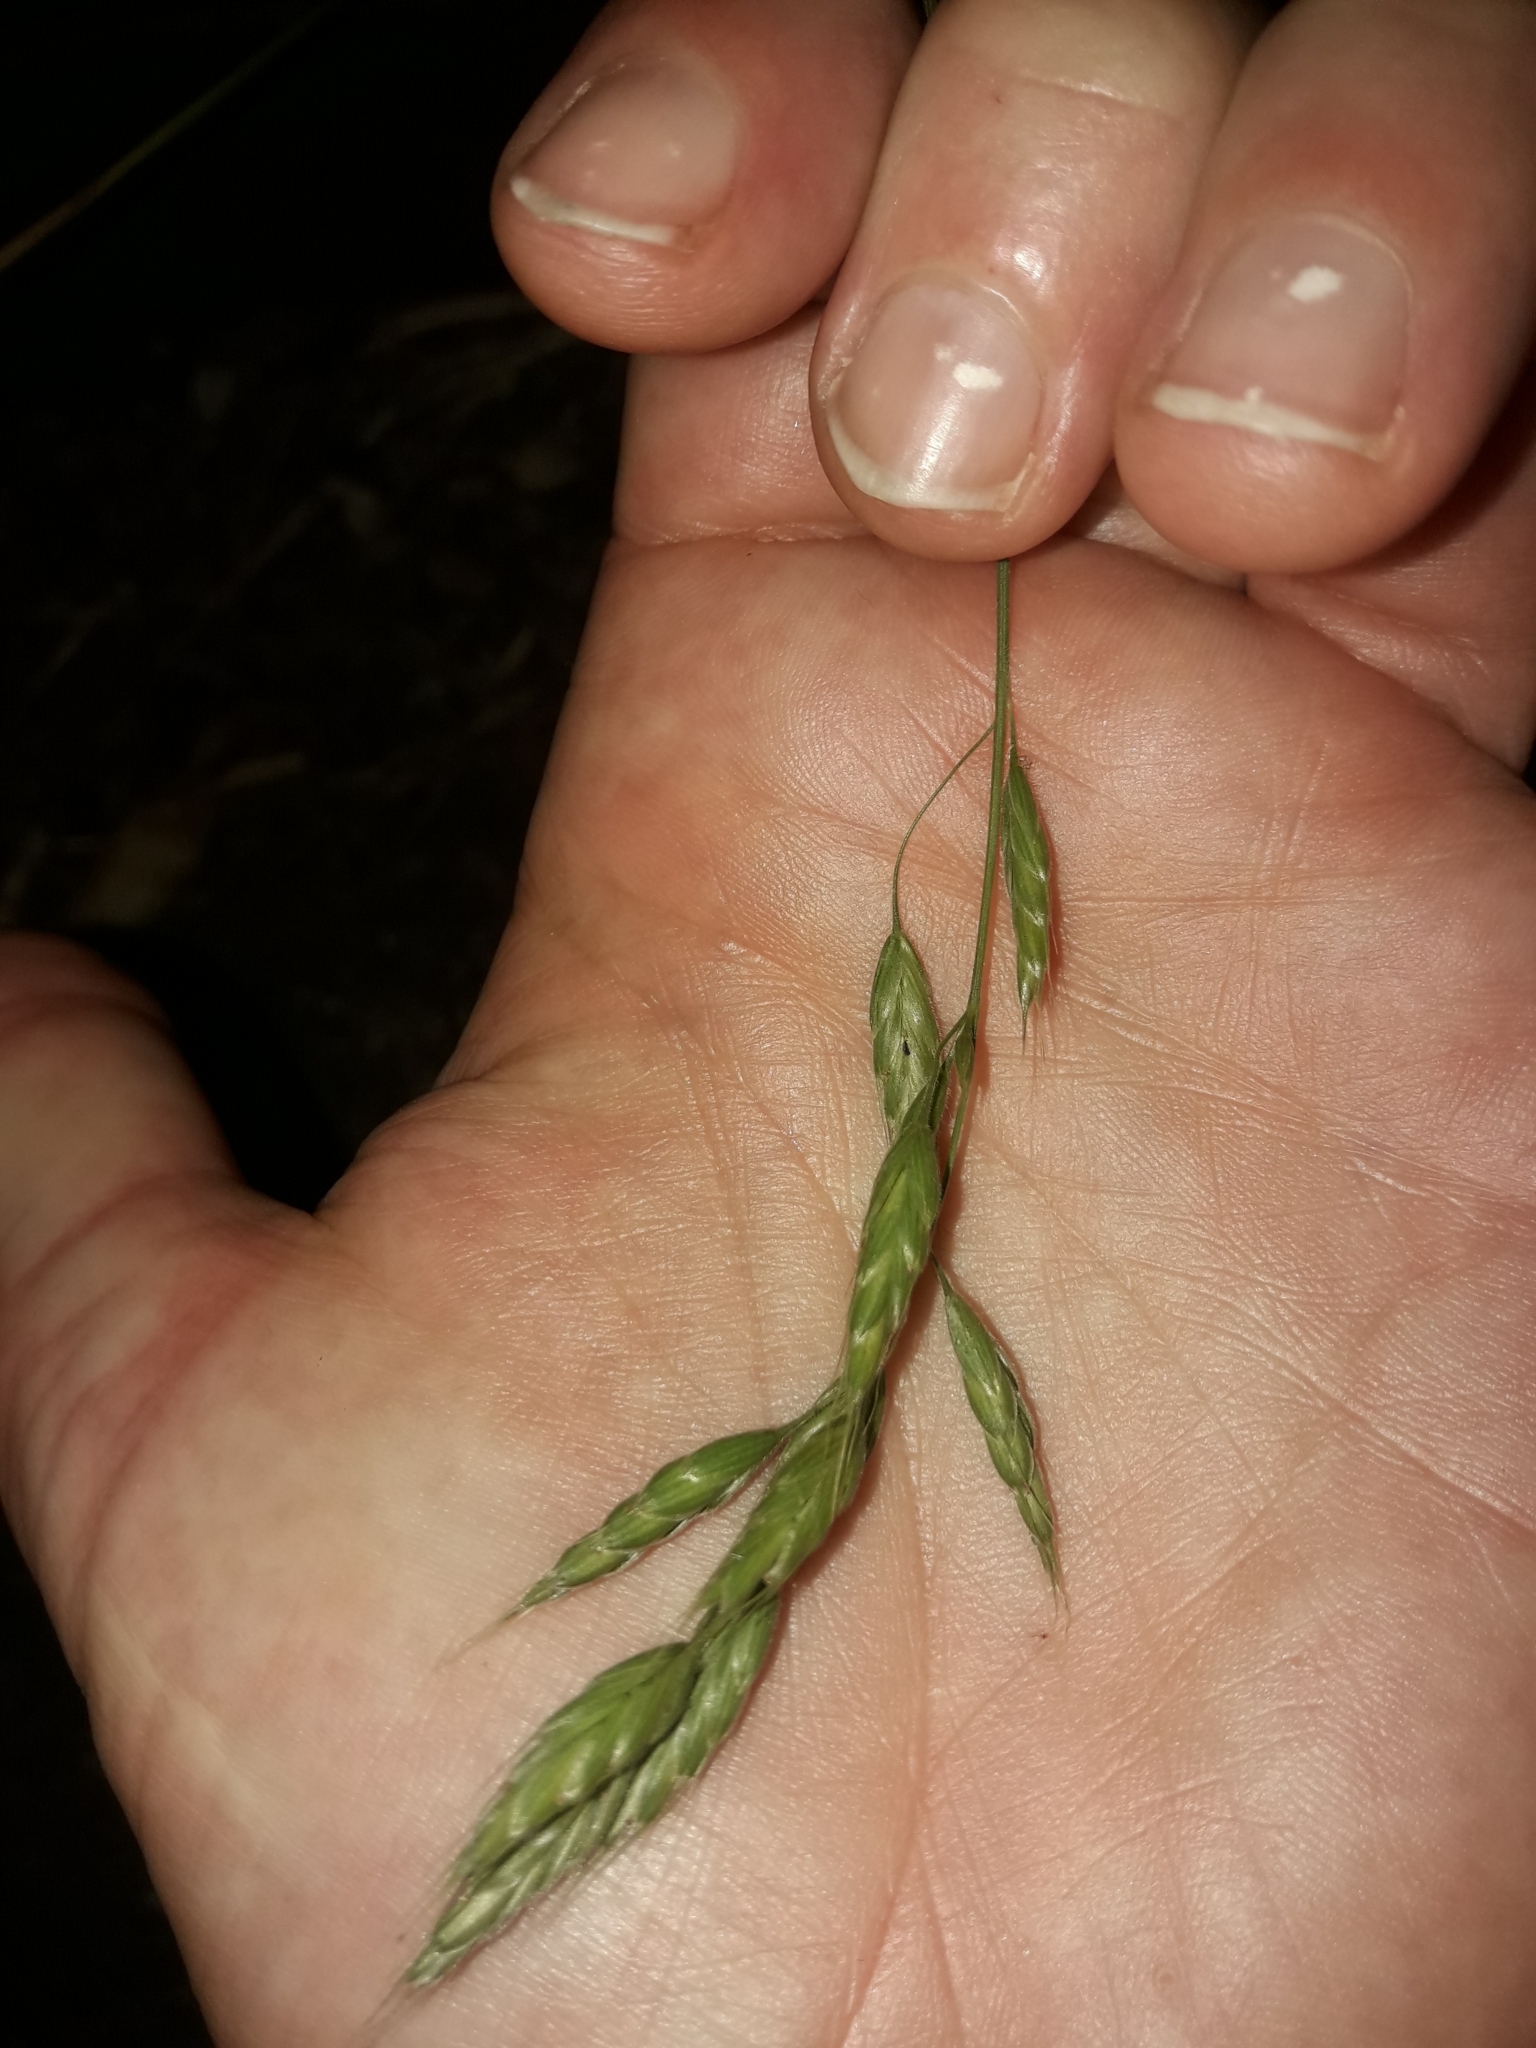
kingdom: Plantae
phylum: Tracheophyta
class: Liliopsida
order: Poales
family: Poaceae
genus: Bromus
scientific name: Bromus hordeaceus
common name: Soft brome
